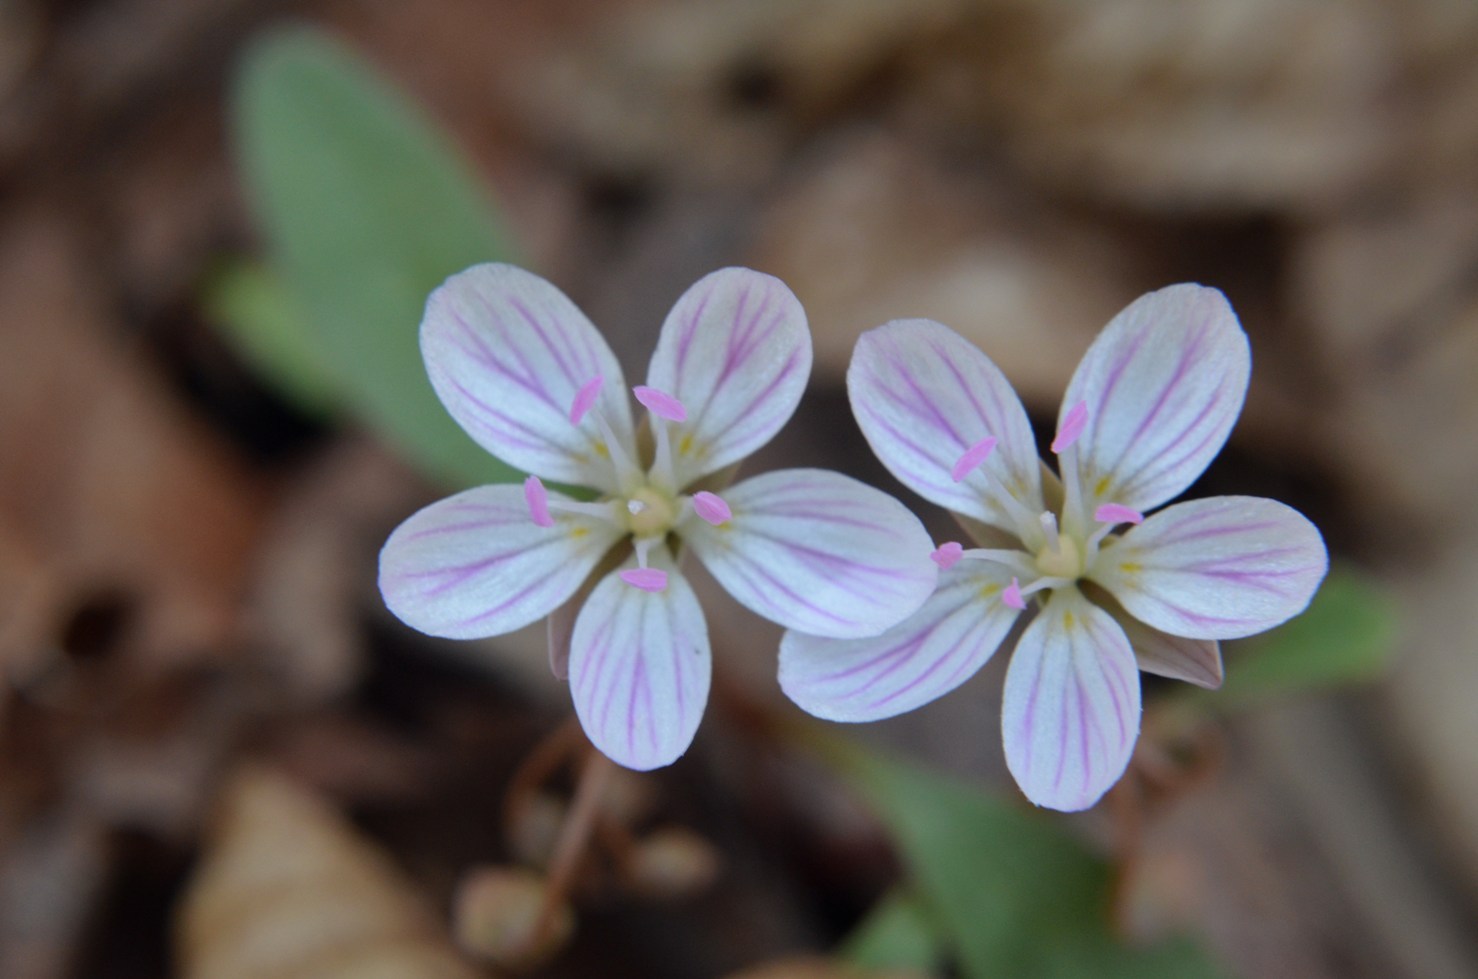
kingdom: Plantae
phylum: Tracheophyta
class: Magnoliopsida
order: Caryophyllales
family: Montiaceae
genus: Claytonia
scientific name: Claytonia caroliniana
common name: Carolina spring beauty
